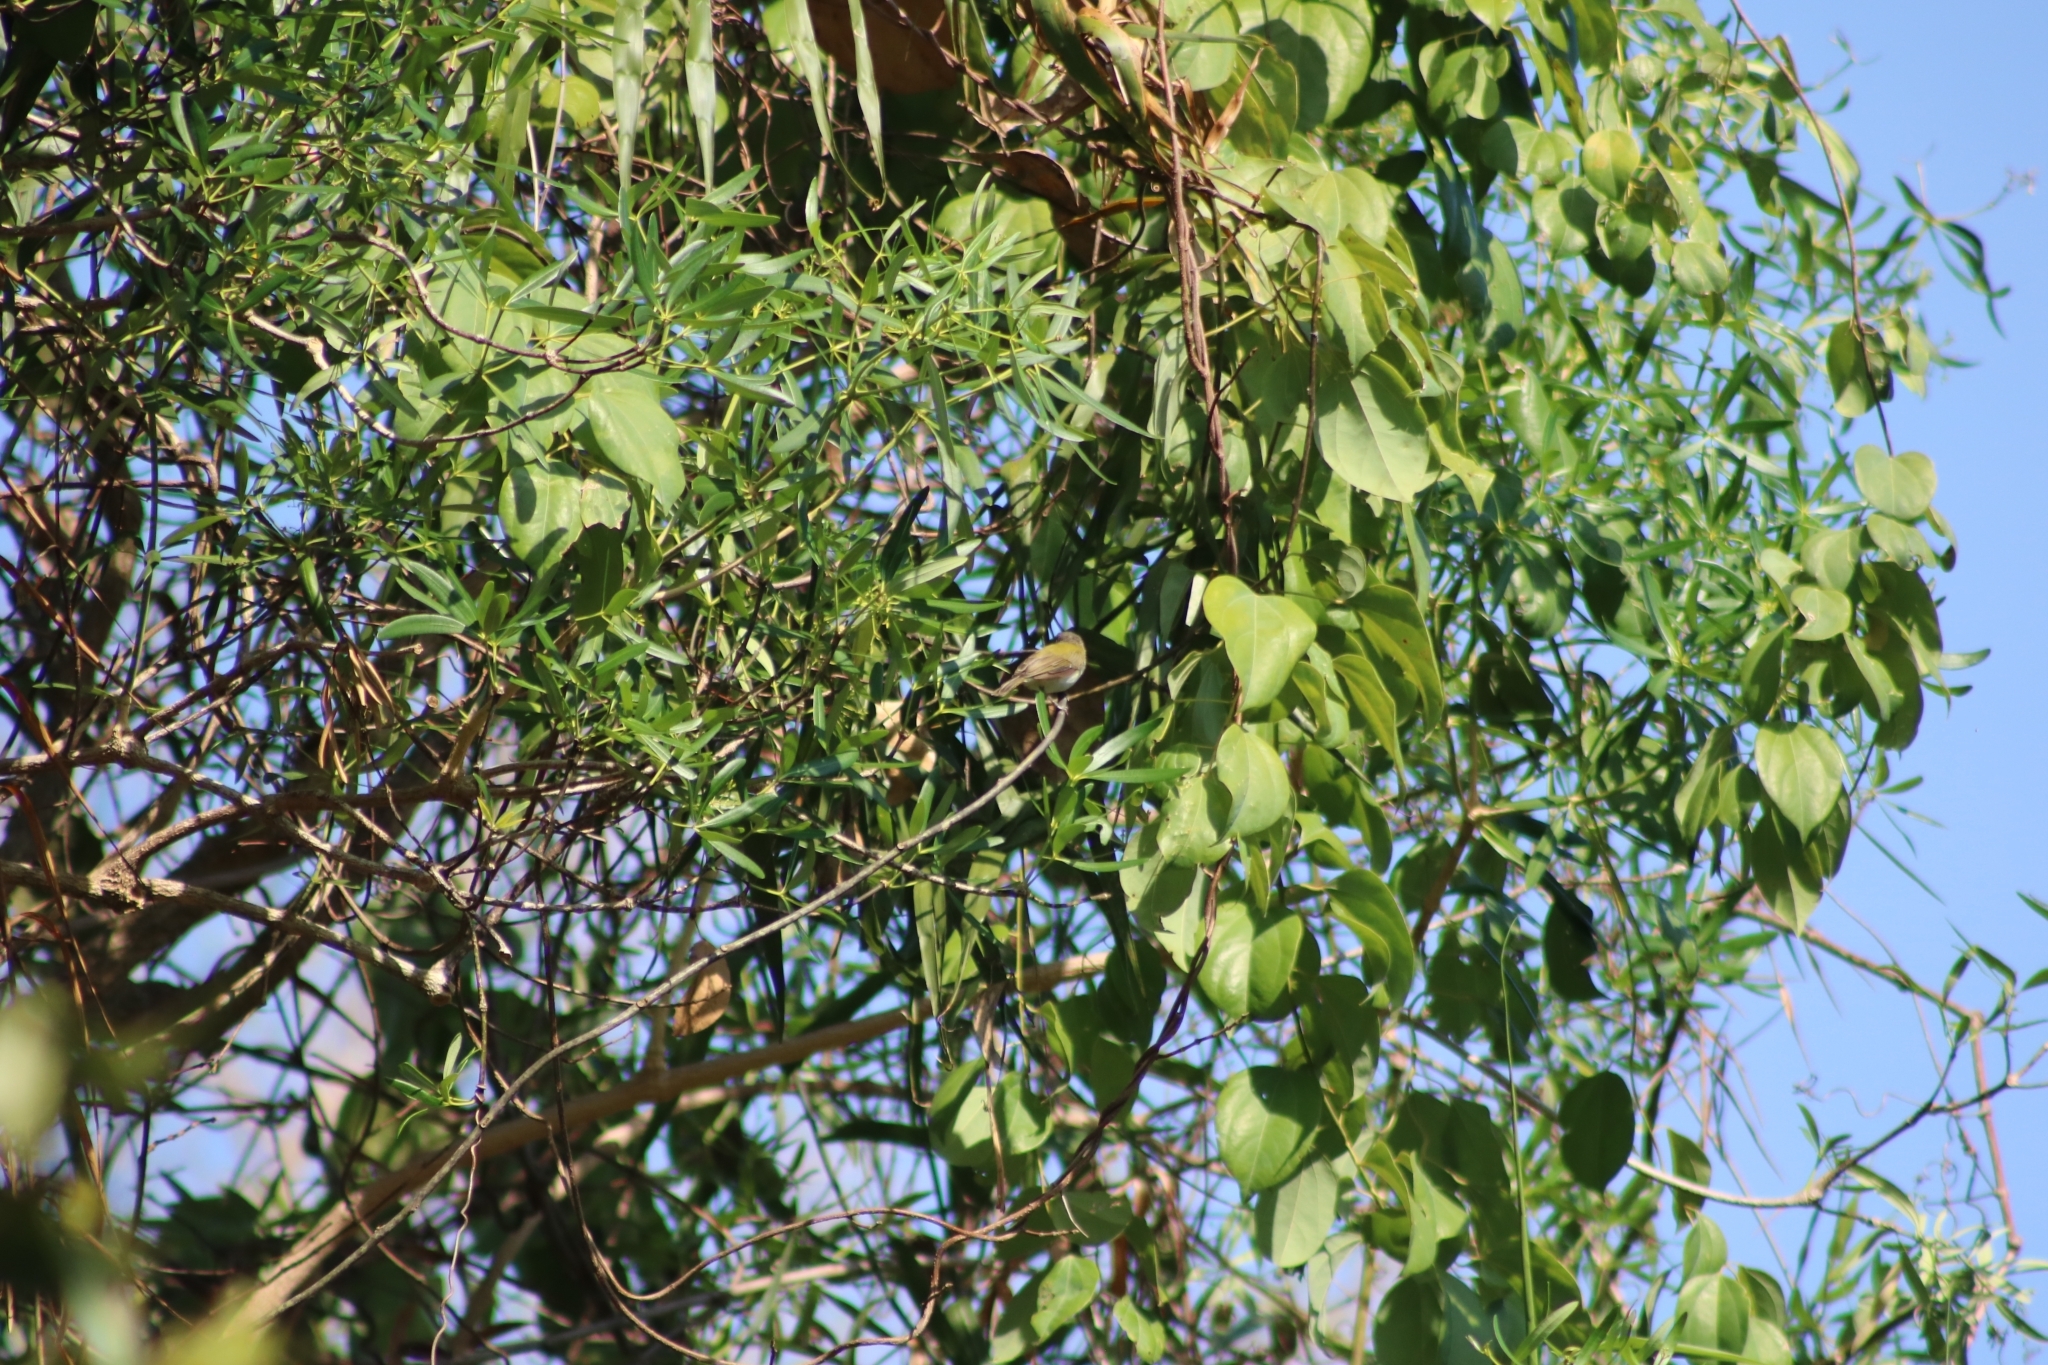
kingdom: Animalia
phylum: Chordata
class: Aves
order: Passeriformes
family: Acanthizidae
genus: Gerygone
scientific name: Gerygone chloronota
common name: Green-backed gerygone
